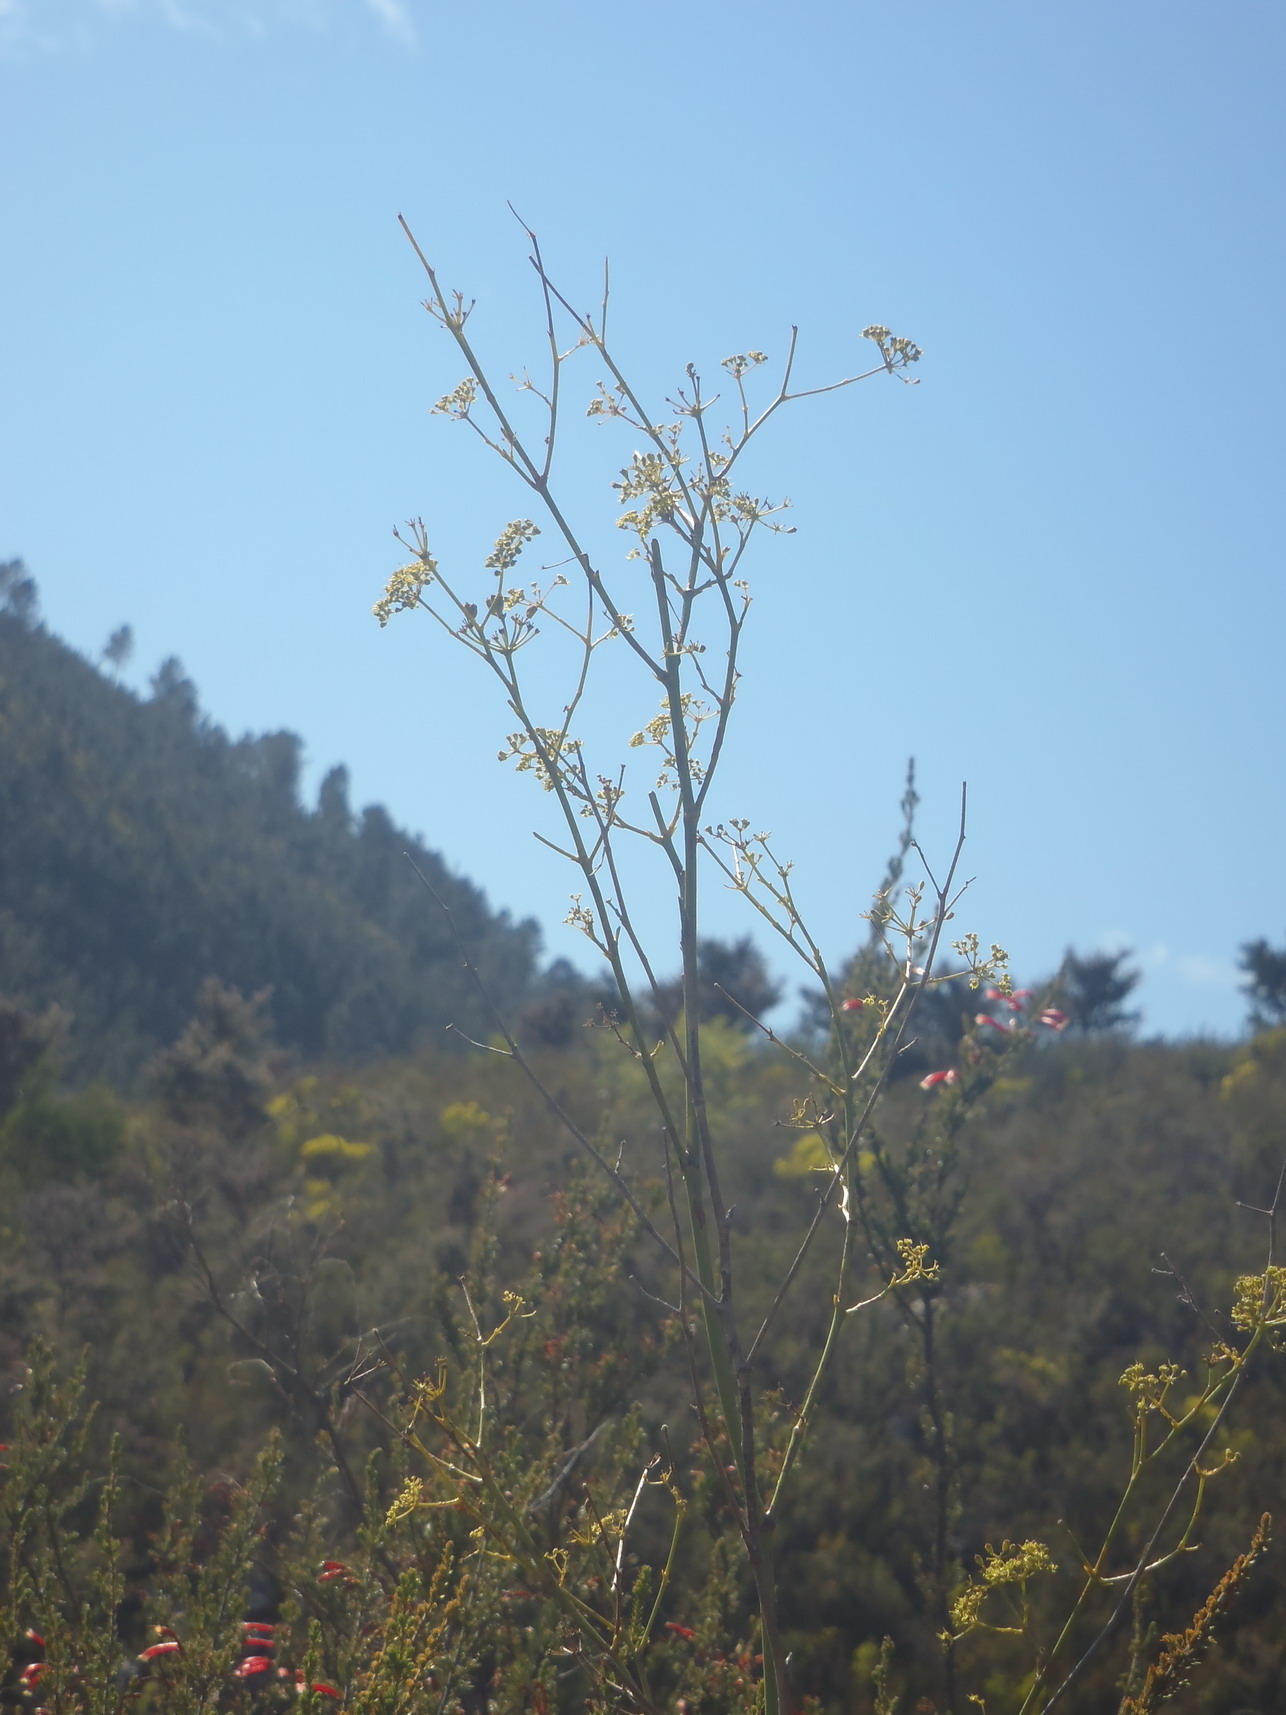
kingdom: Plantae
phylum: Tracheophyta
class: Magnoliopsida
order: Apiales
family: Apiaceae
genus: Anginon
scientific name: Anginon difforme
